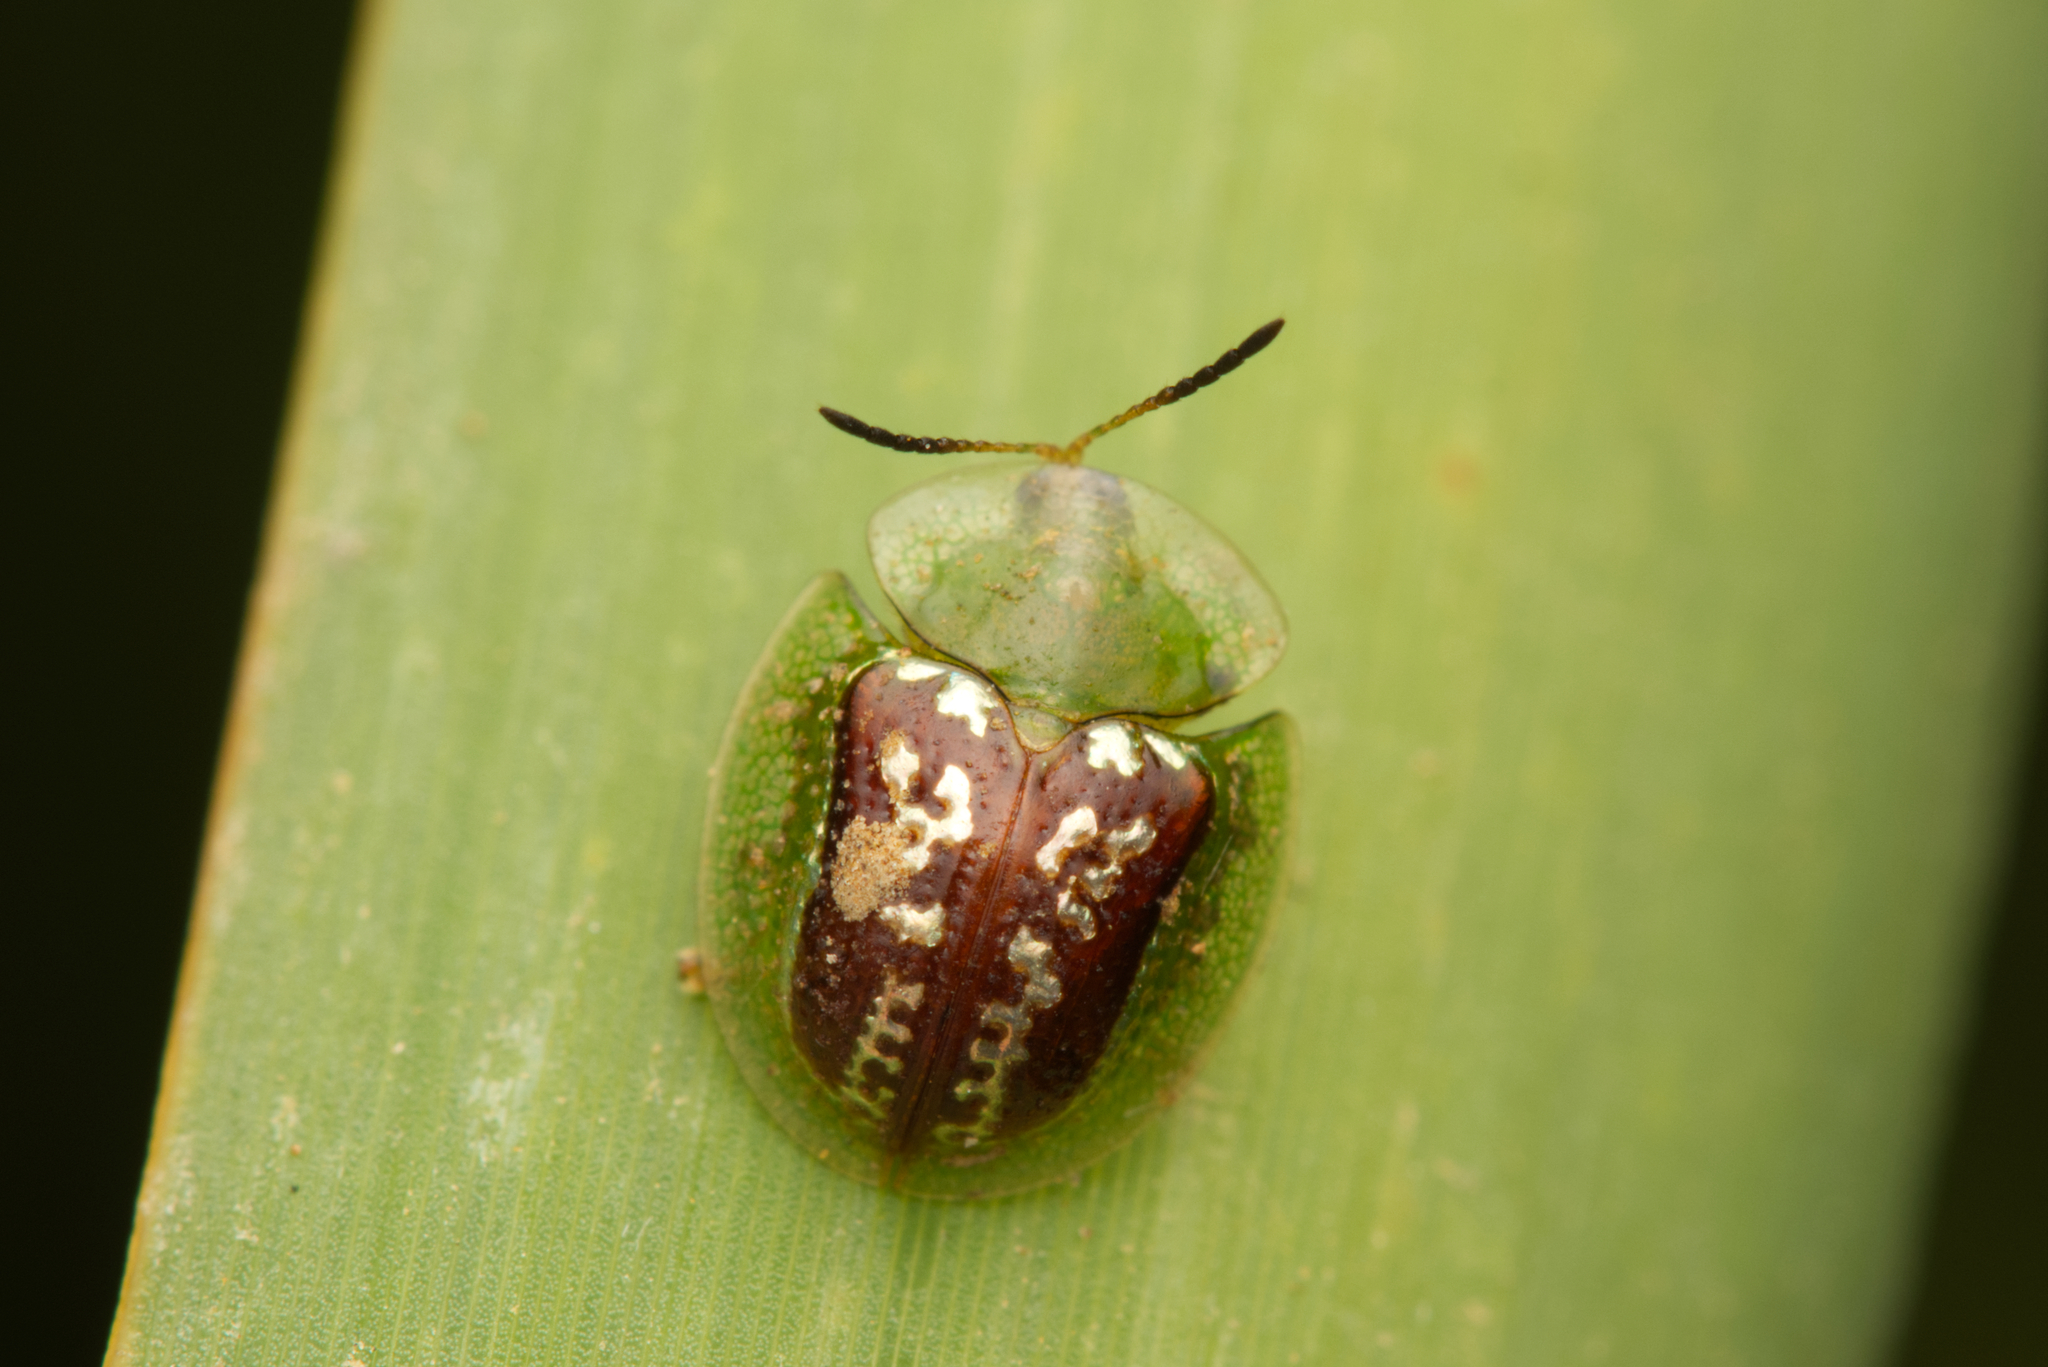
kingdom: Animalia
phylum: Arthropoda
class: Insecta
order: Coleoptera
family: Chrysomelidae
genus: Cassida
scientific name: Cassida compuncta
